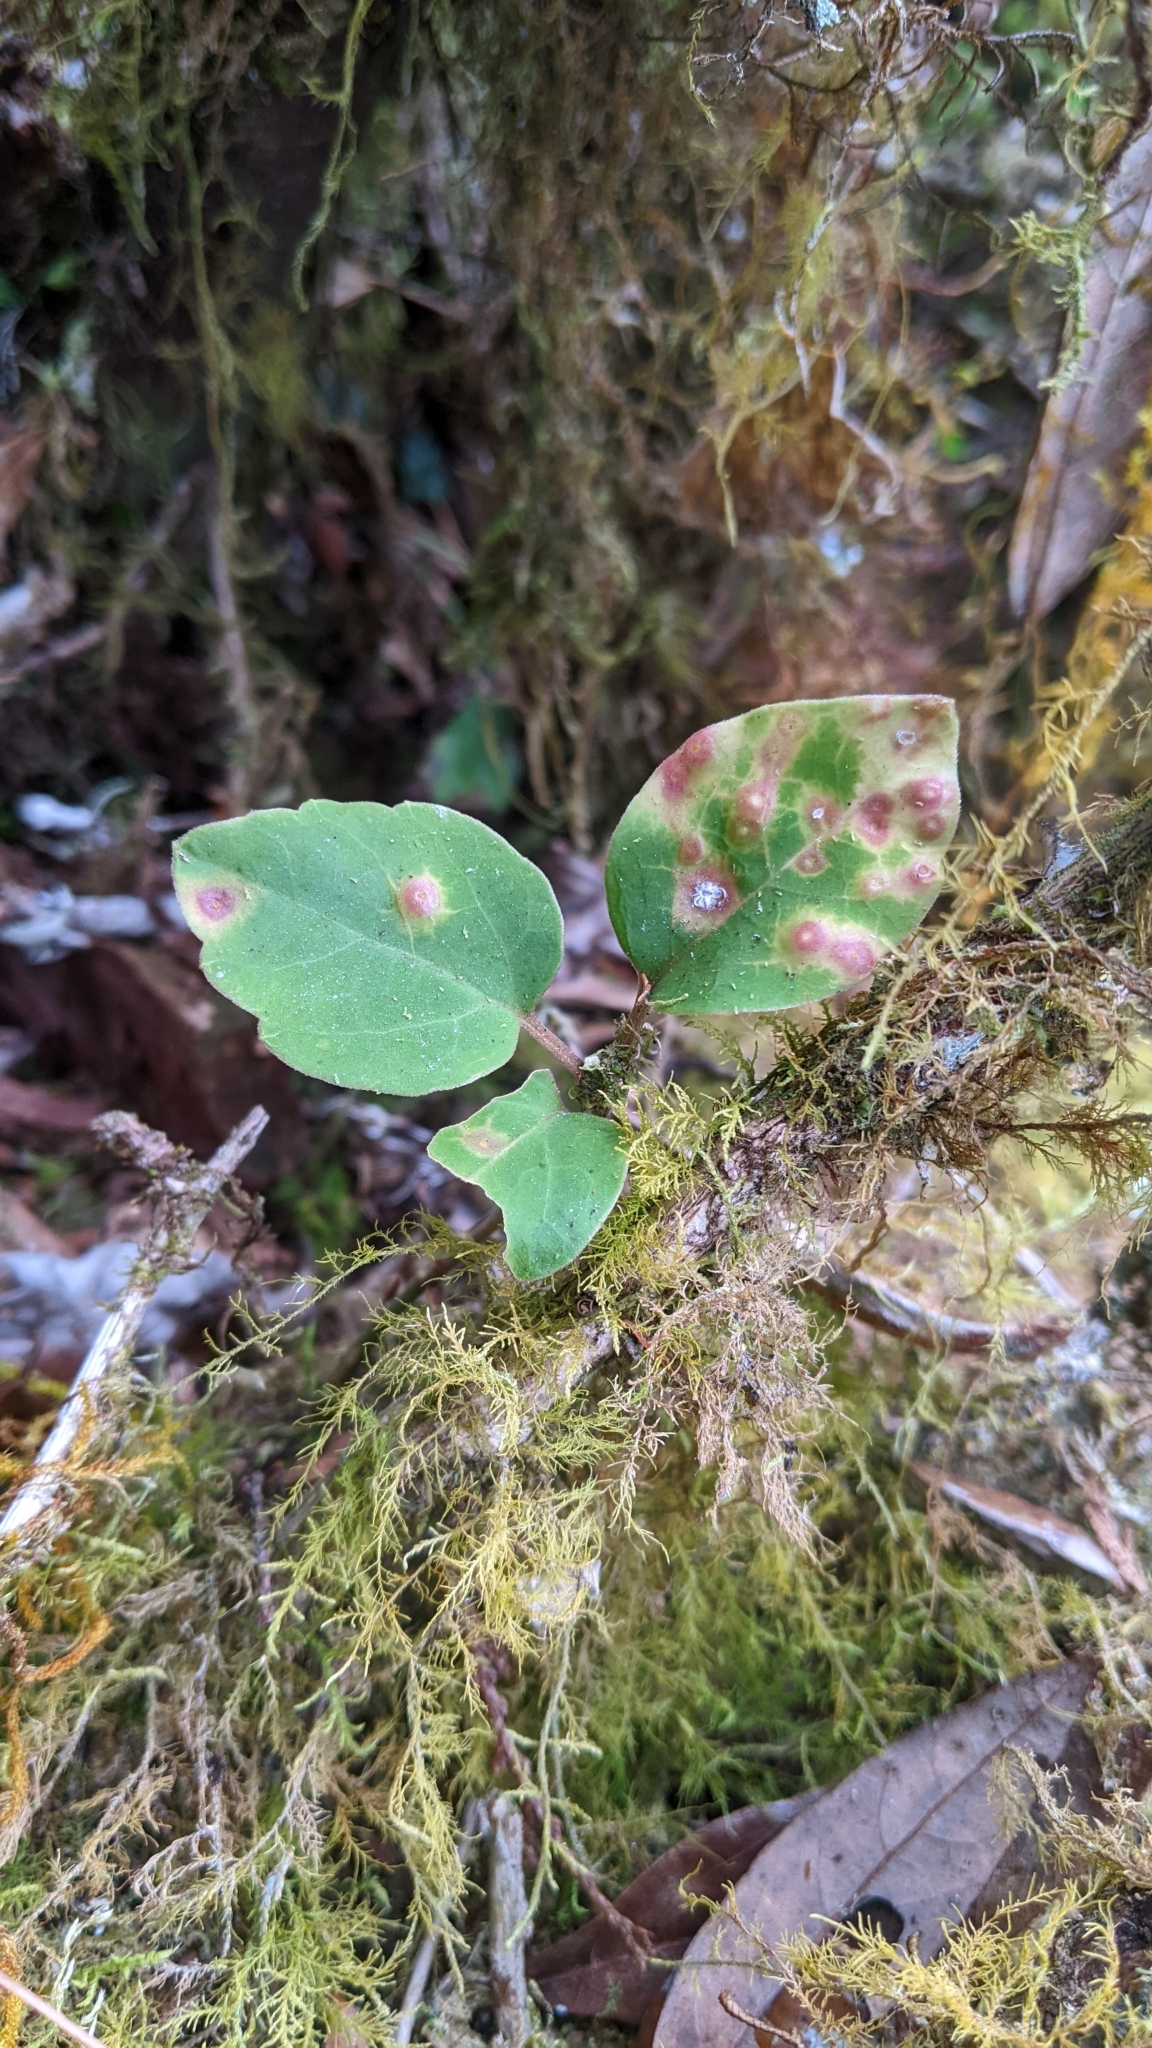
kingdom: Plantae
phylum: Tracheophyta
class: Magnoliopsida
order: Buxales
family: Buxaceae
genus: Pachysandra
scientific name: Pachysandra axillaris
